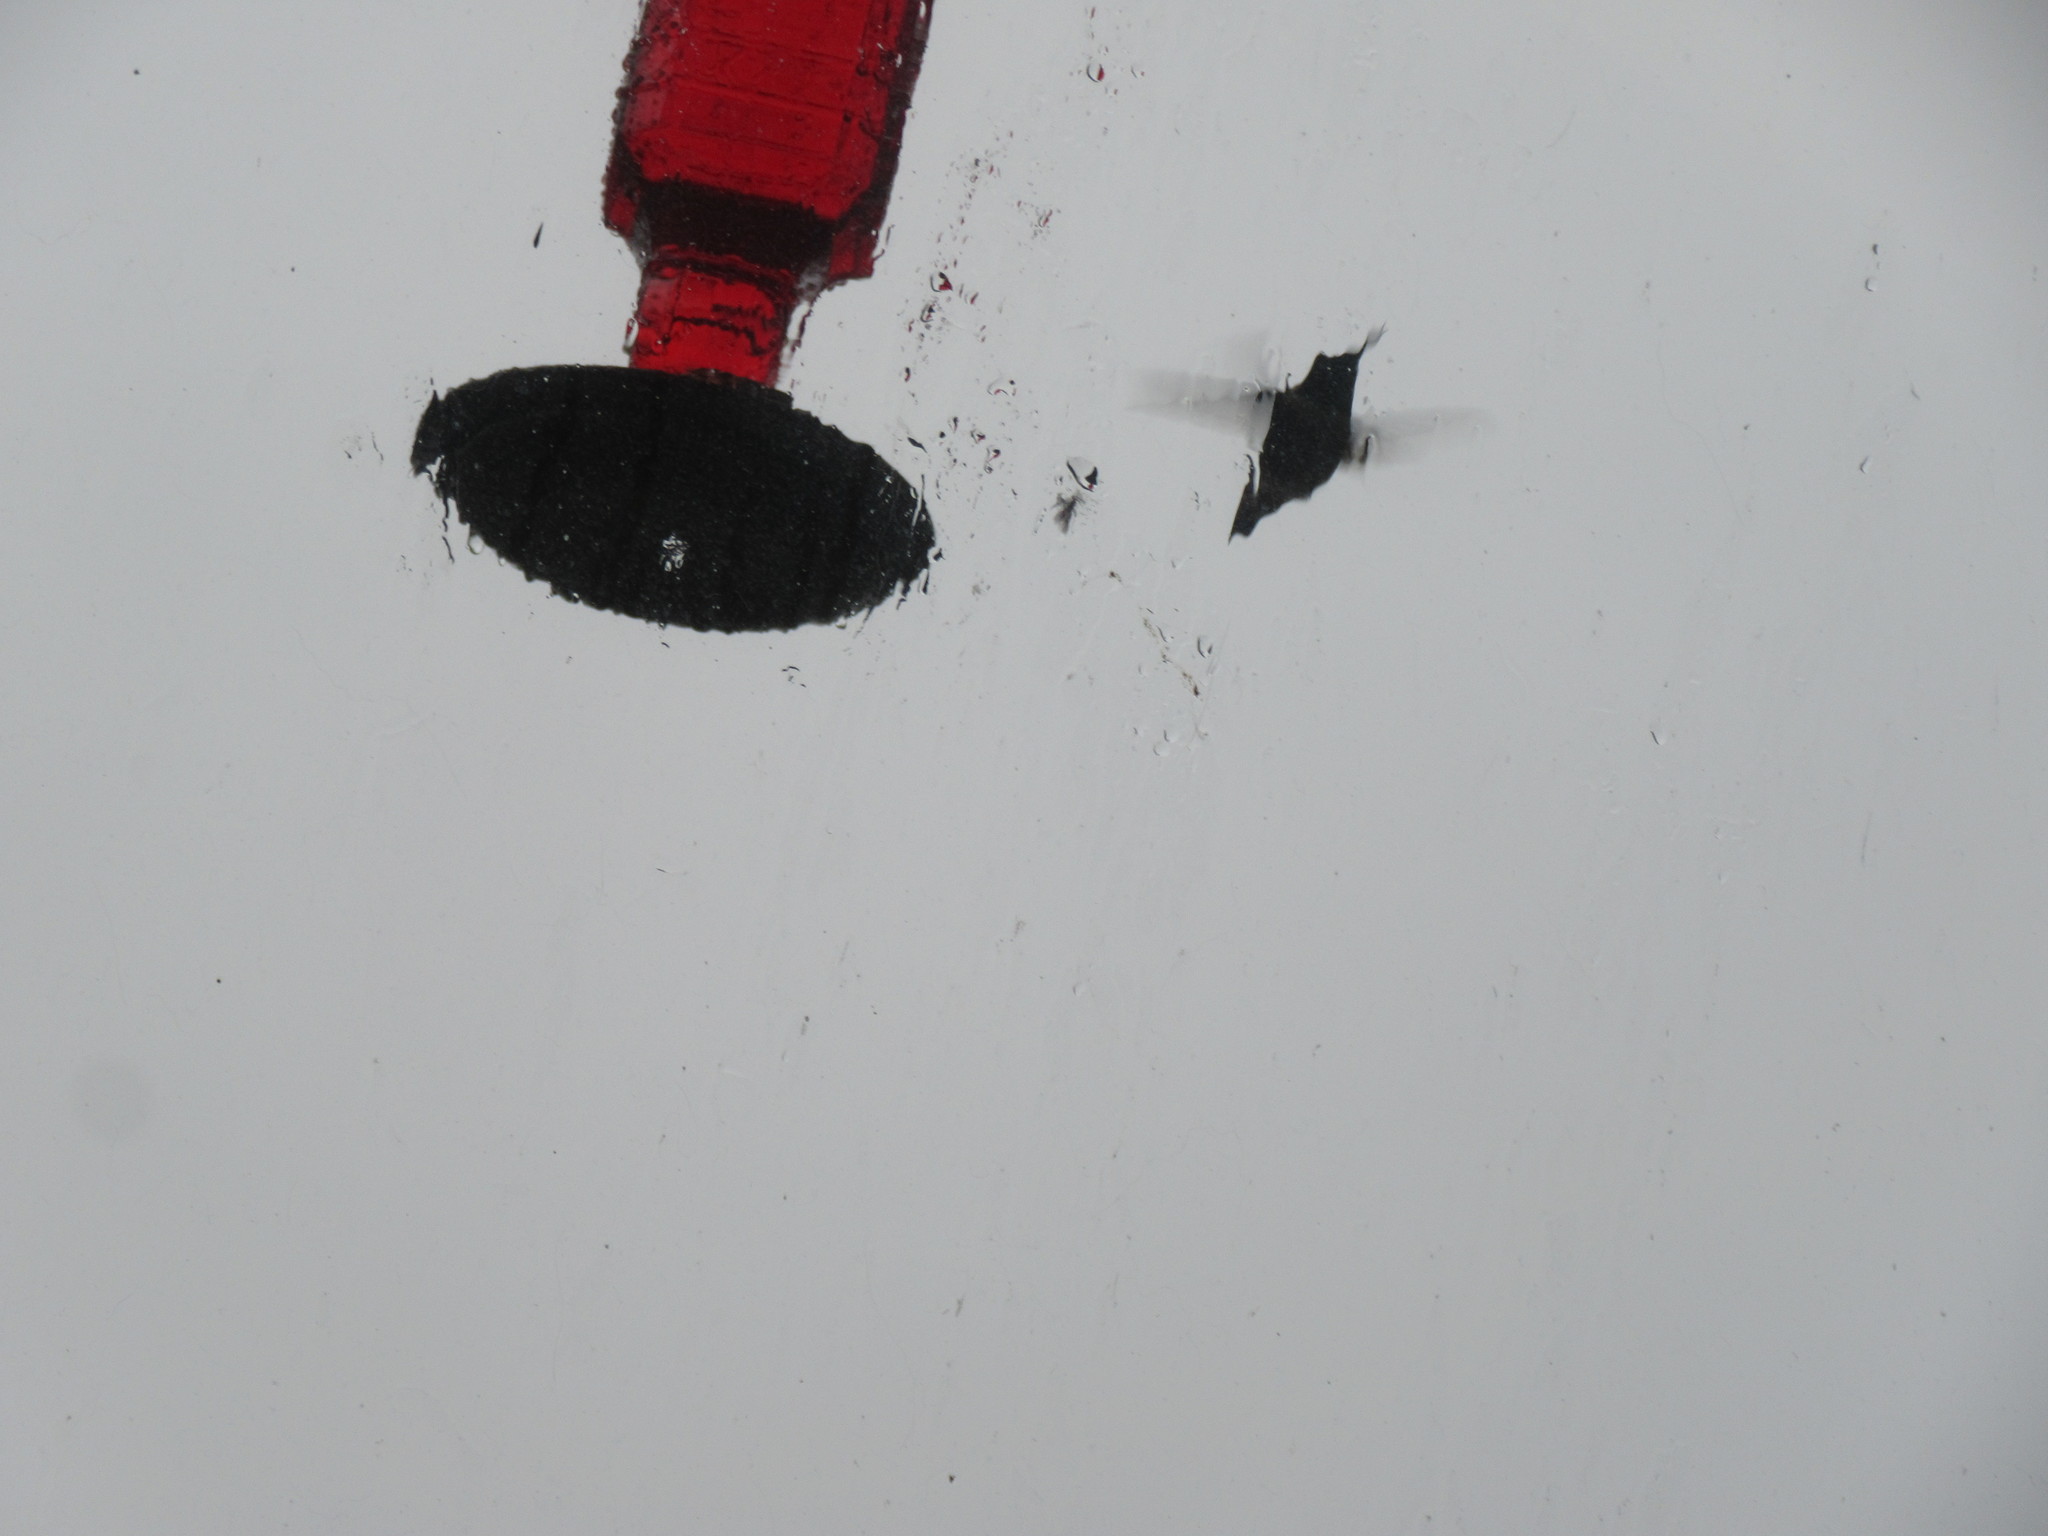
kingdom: Animalia
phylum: Chordata
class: Aves
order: Apodiformes
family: Trochilidae
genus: Archilochus
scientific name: Archilochus colubris
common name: Ruby-throated hummingbird
